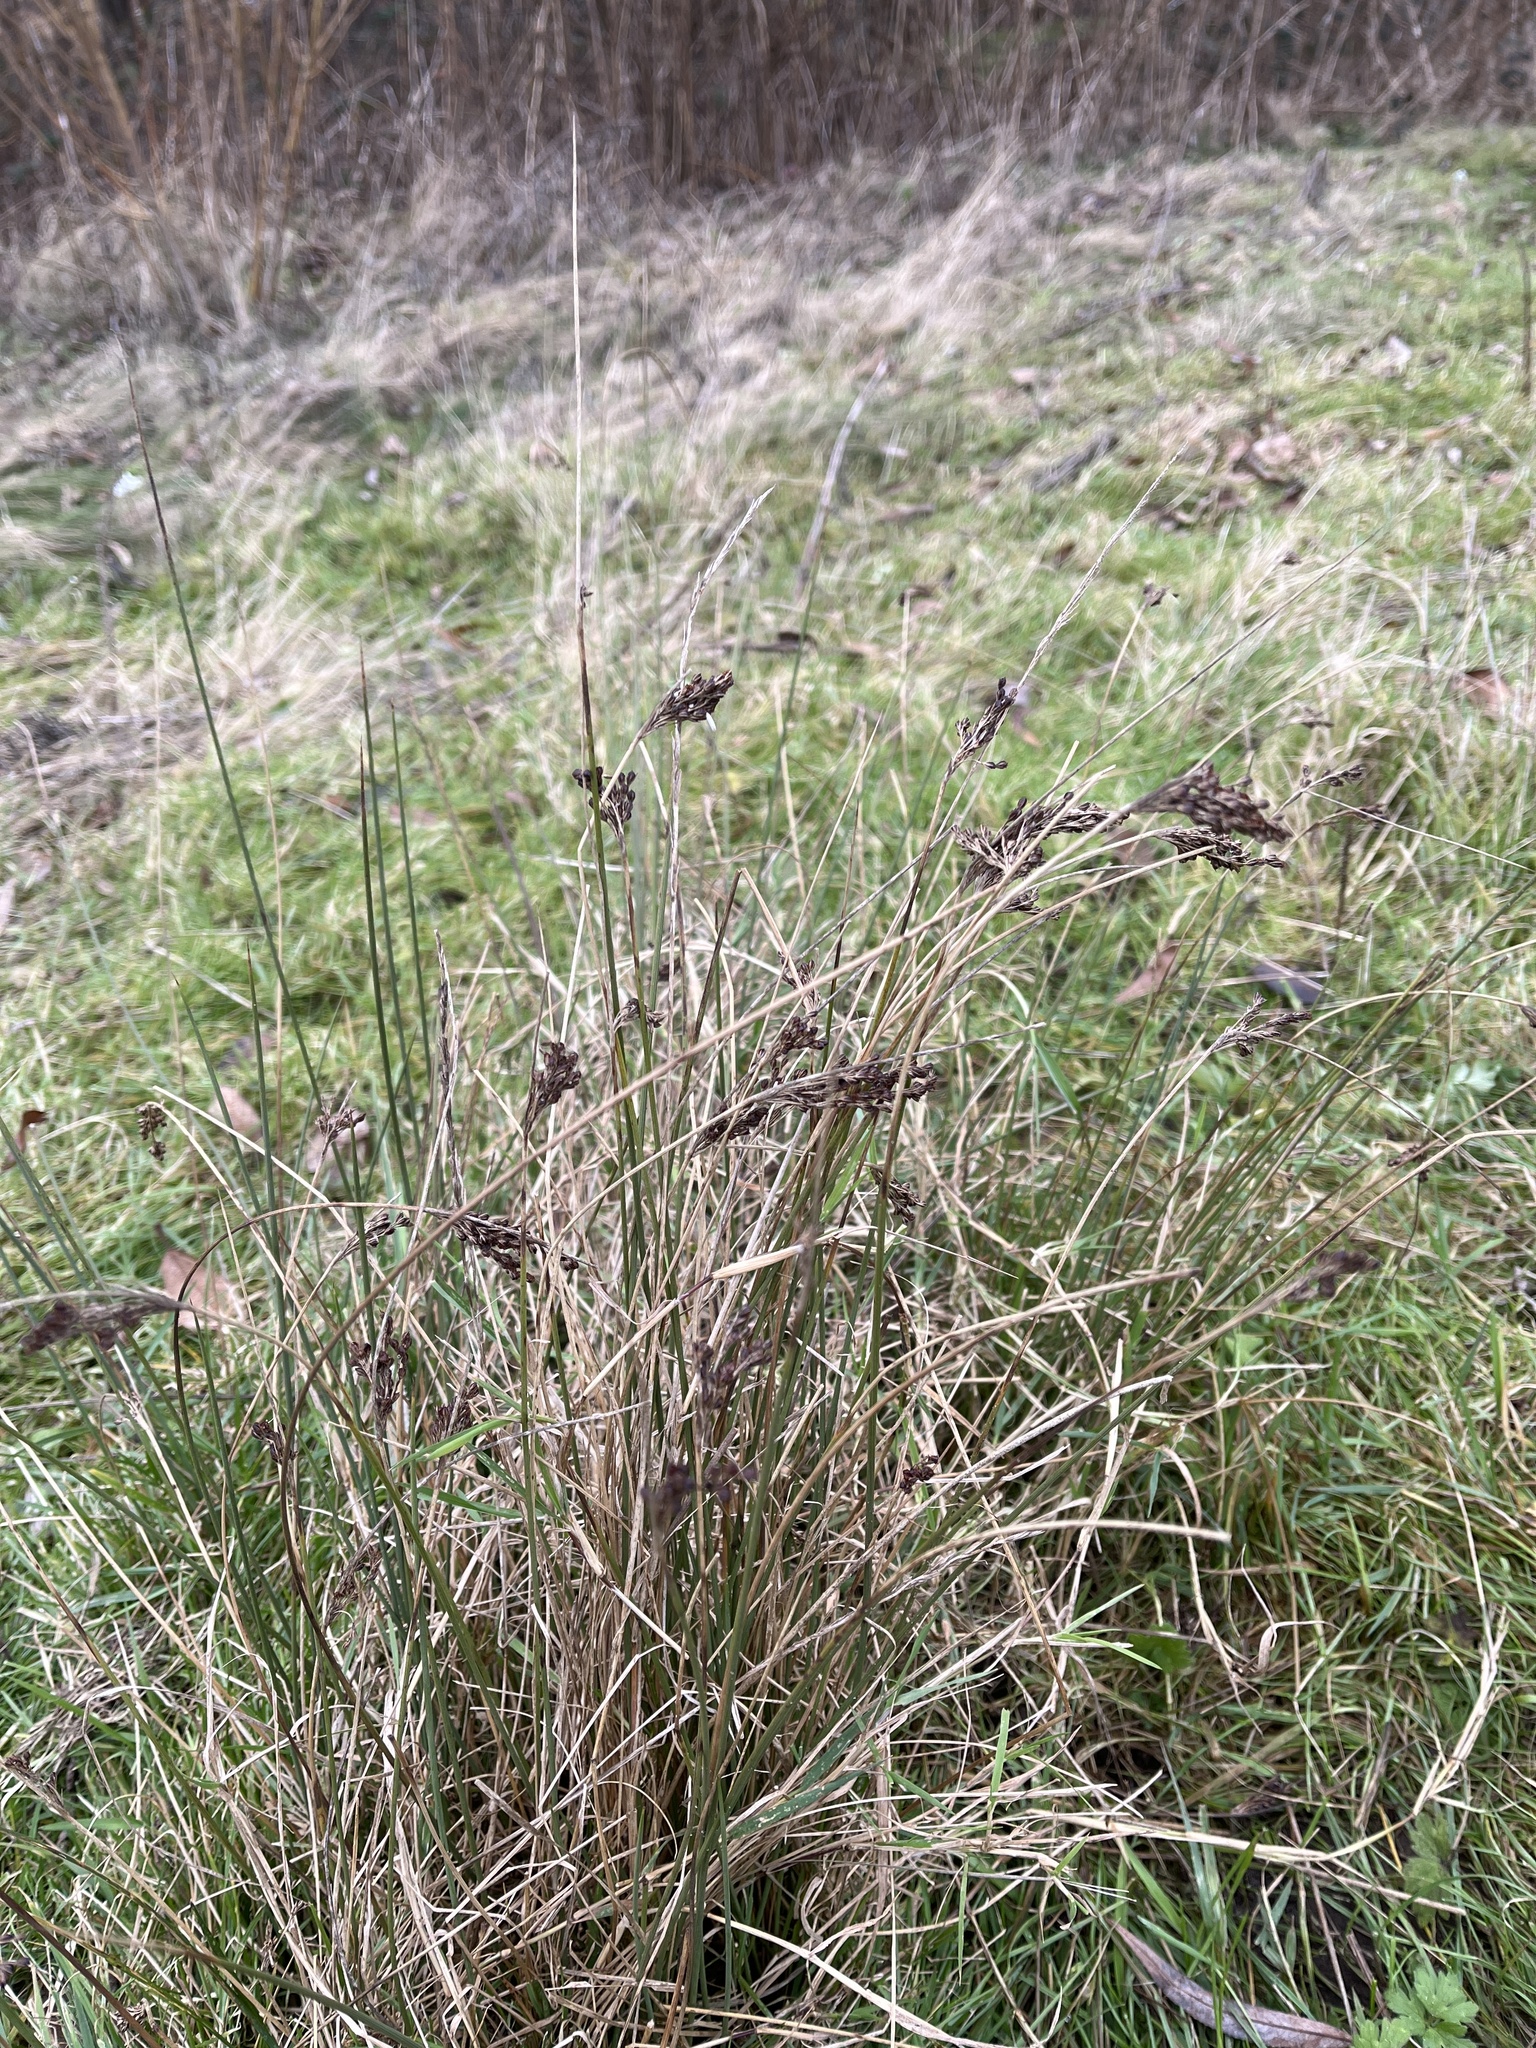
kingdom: Plantae
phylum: Tracheophyta
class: Liliopsida
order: Poales
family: Juncaceae
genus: Juncus
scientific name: Juncus inflexus
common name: Hard rush
